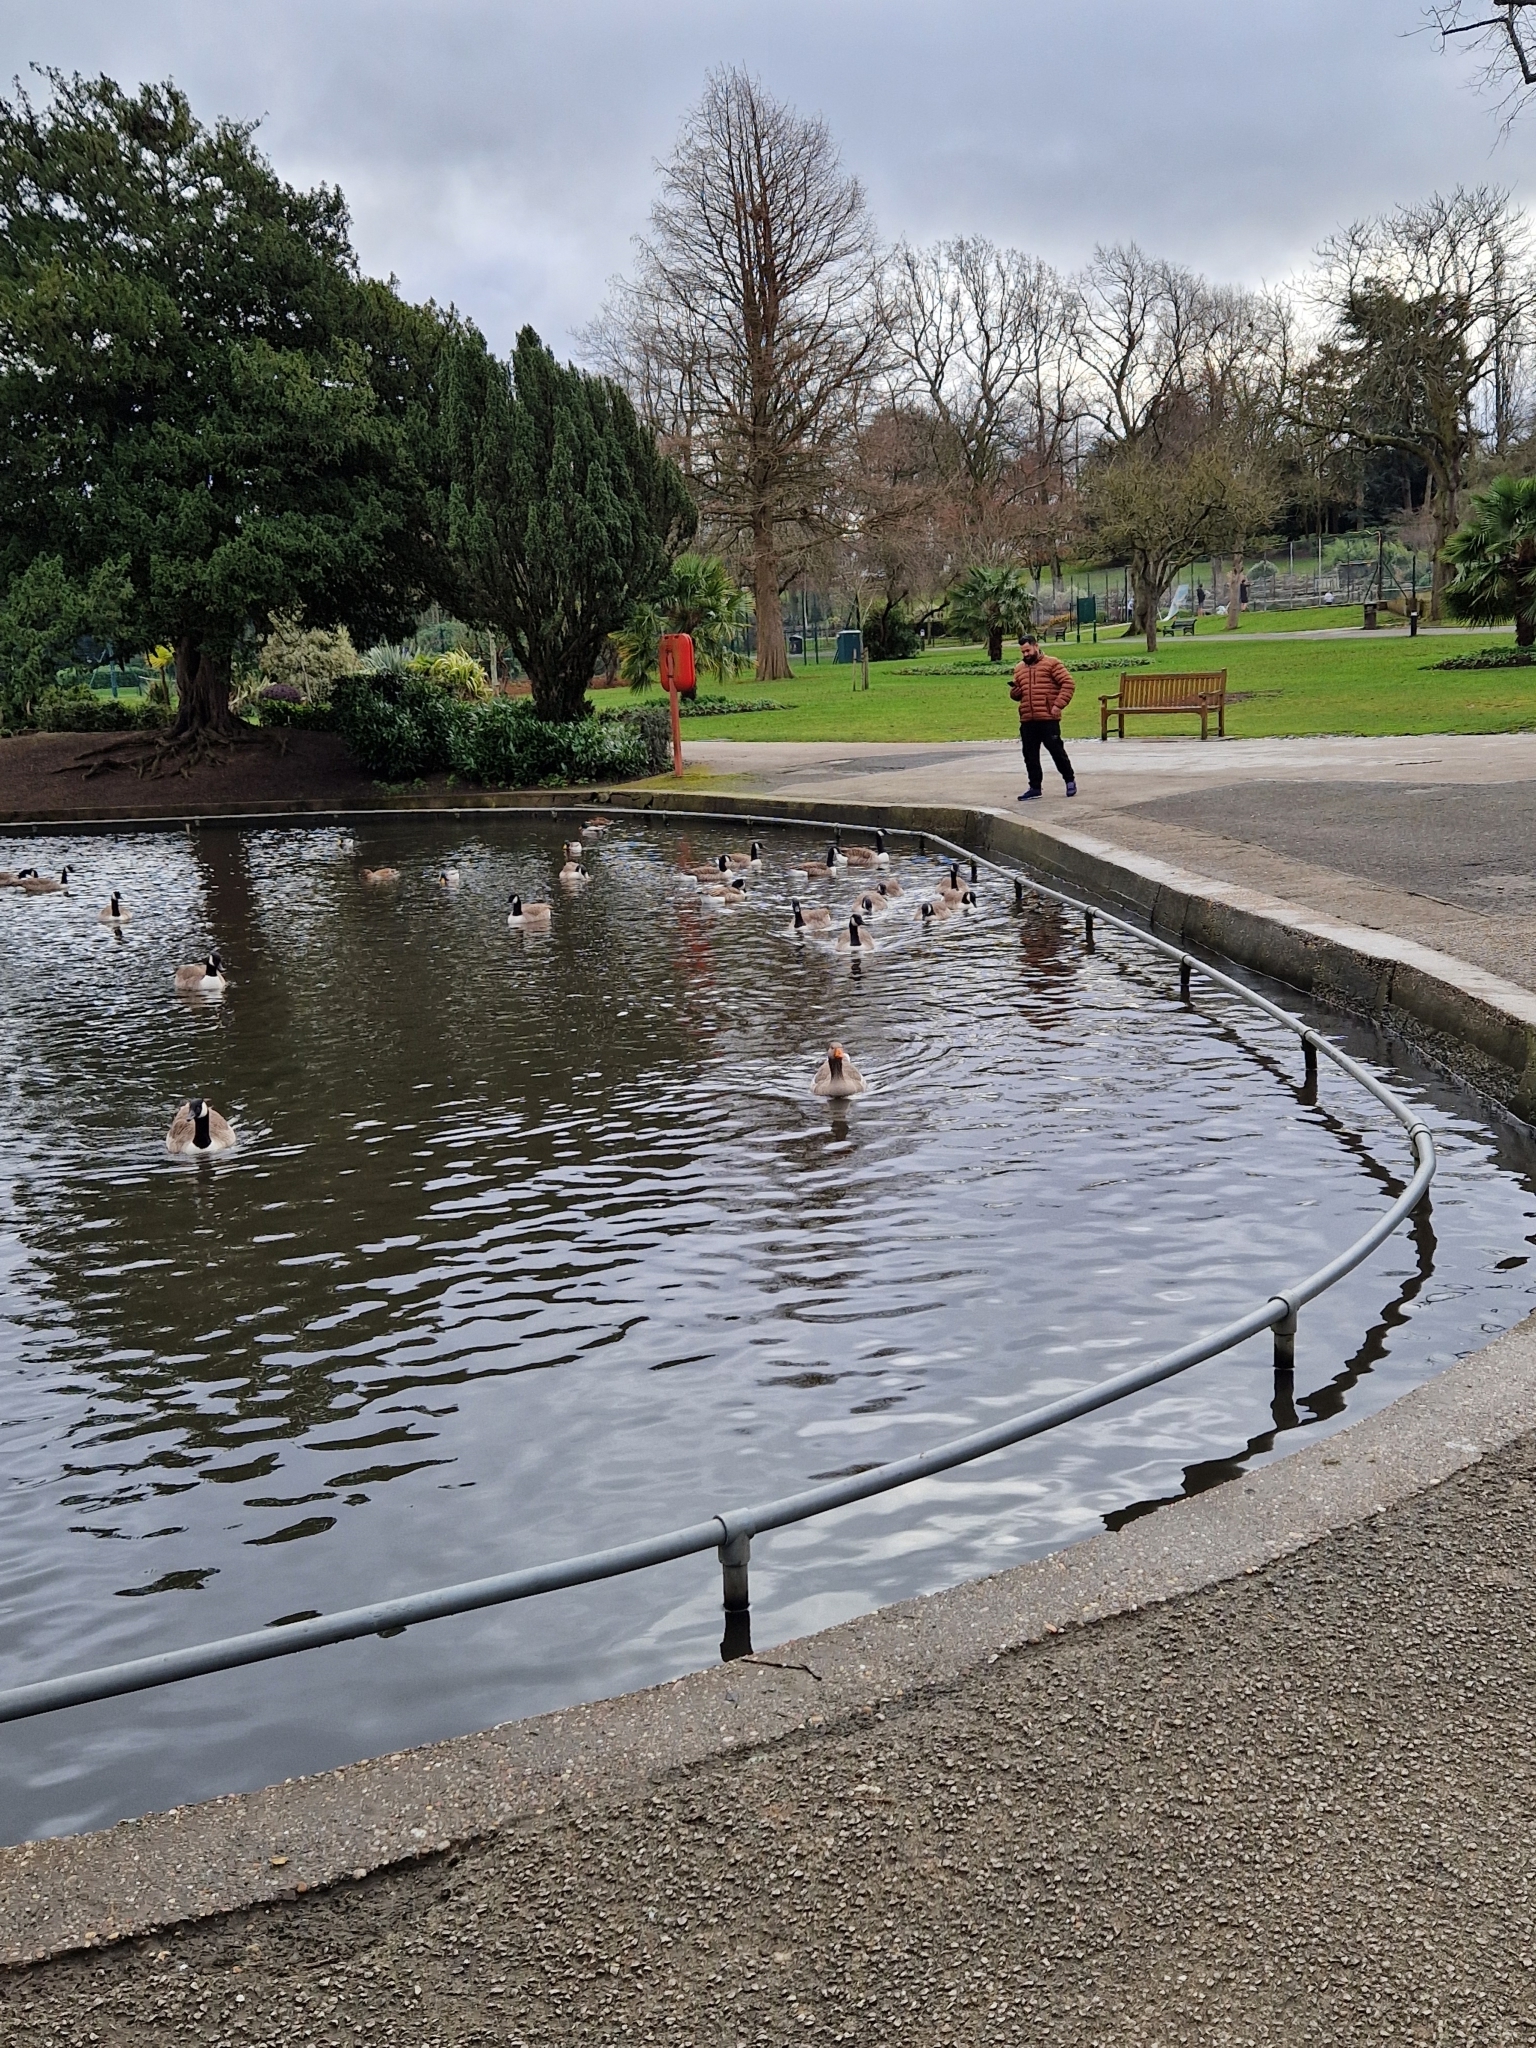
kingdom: Animalia
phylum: Chordata
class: Aves
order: Anseriformes
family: Anatidae
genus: Anser
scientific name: Anser anser
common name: Greylag goose
